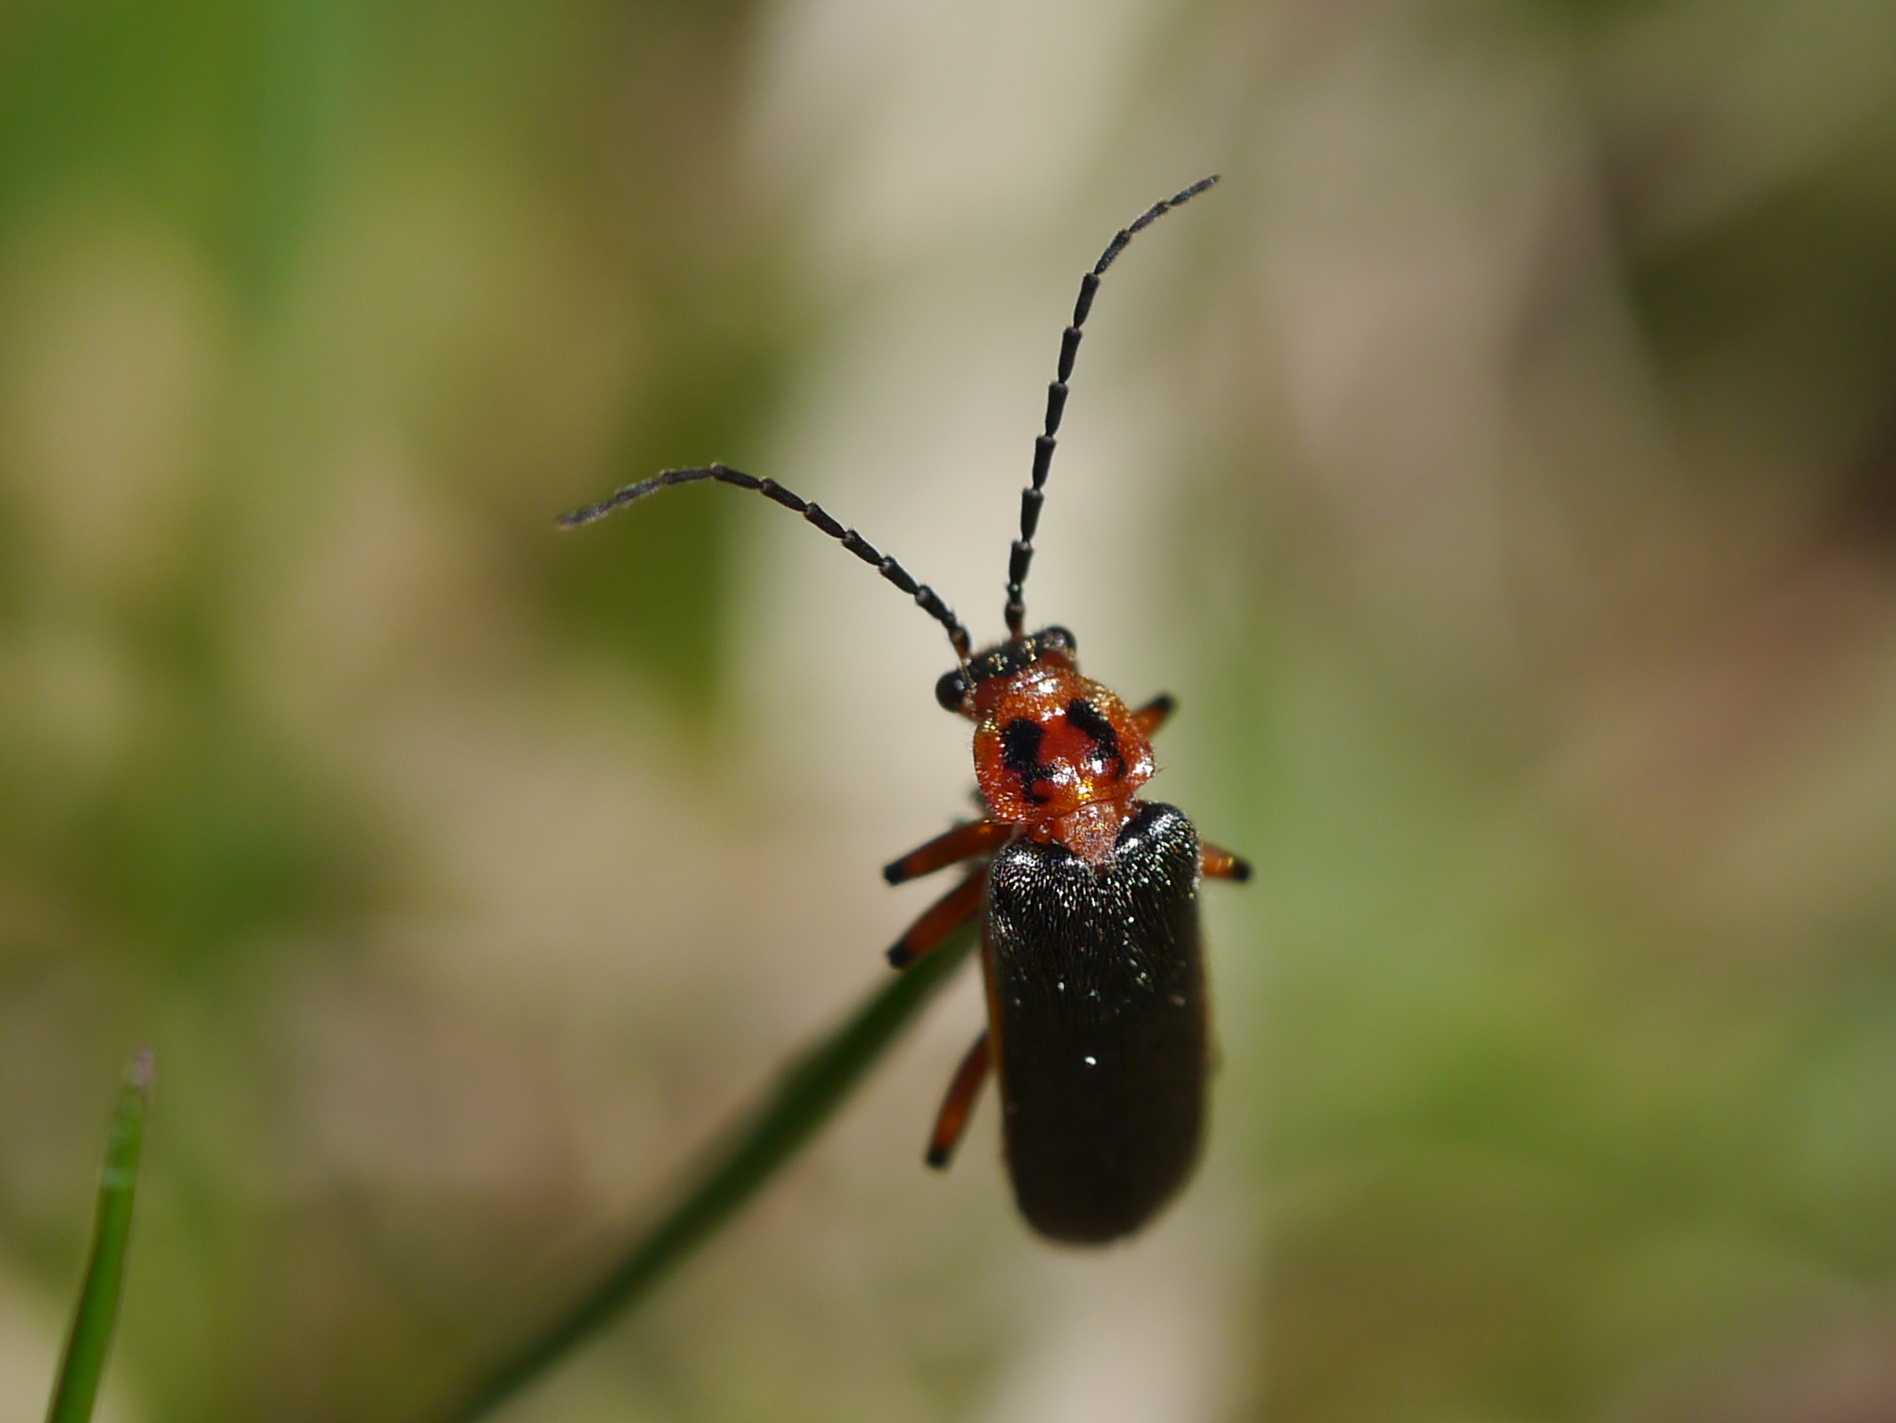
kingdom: Animalia
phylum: Arthropoda
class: Insecta
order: Coleoptera
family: Cantharidae
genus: Atalantycha
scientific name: Atalantycha bilineata
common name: Two-lined leatherwing
